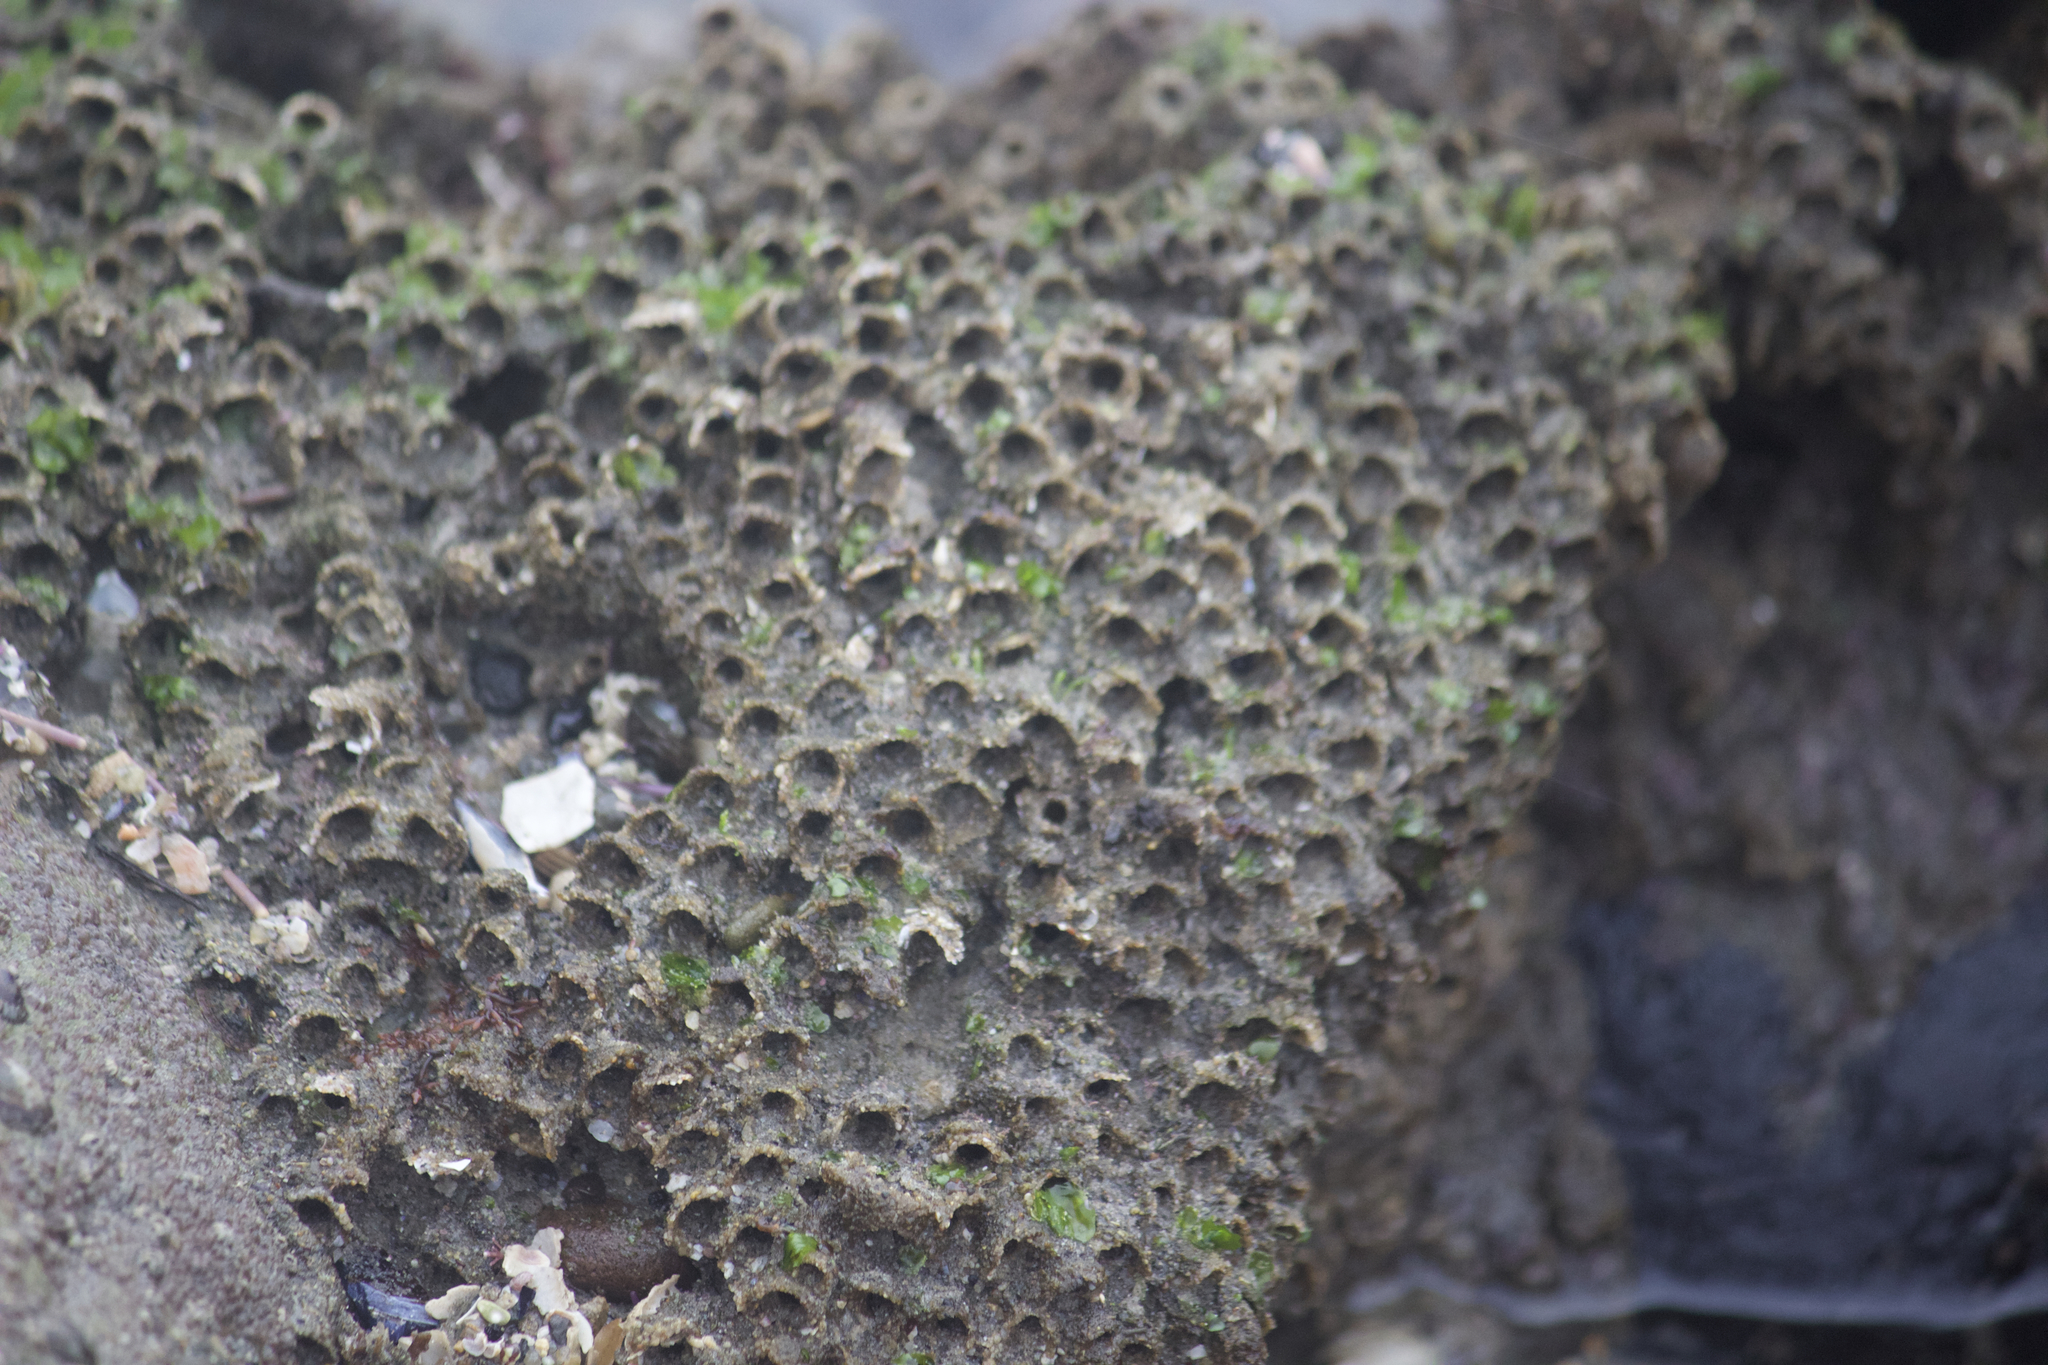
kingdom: Animalia
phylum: Annelida
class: Polychaeta
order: Sabellida
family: Sabellariidae
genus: Phragmatopoma
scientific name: Phragmatopoma californica
